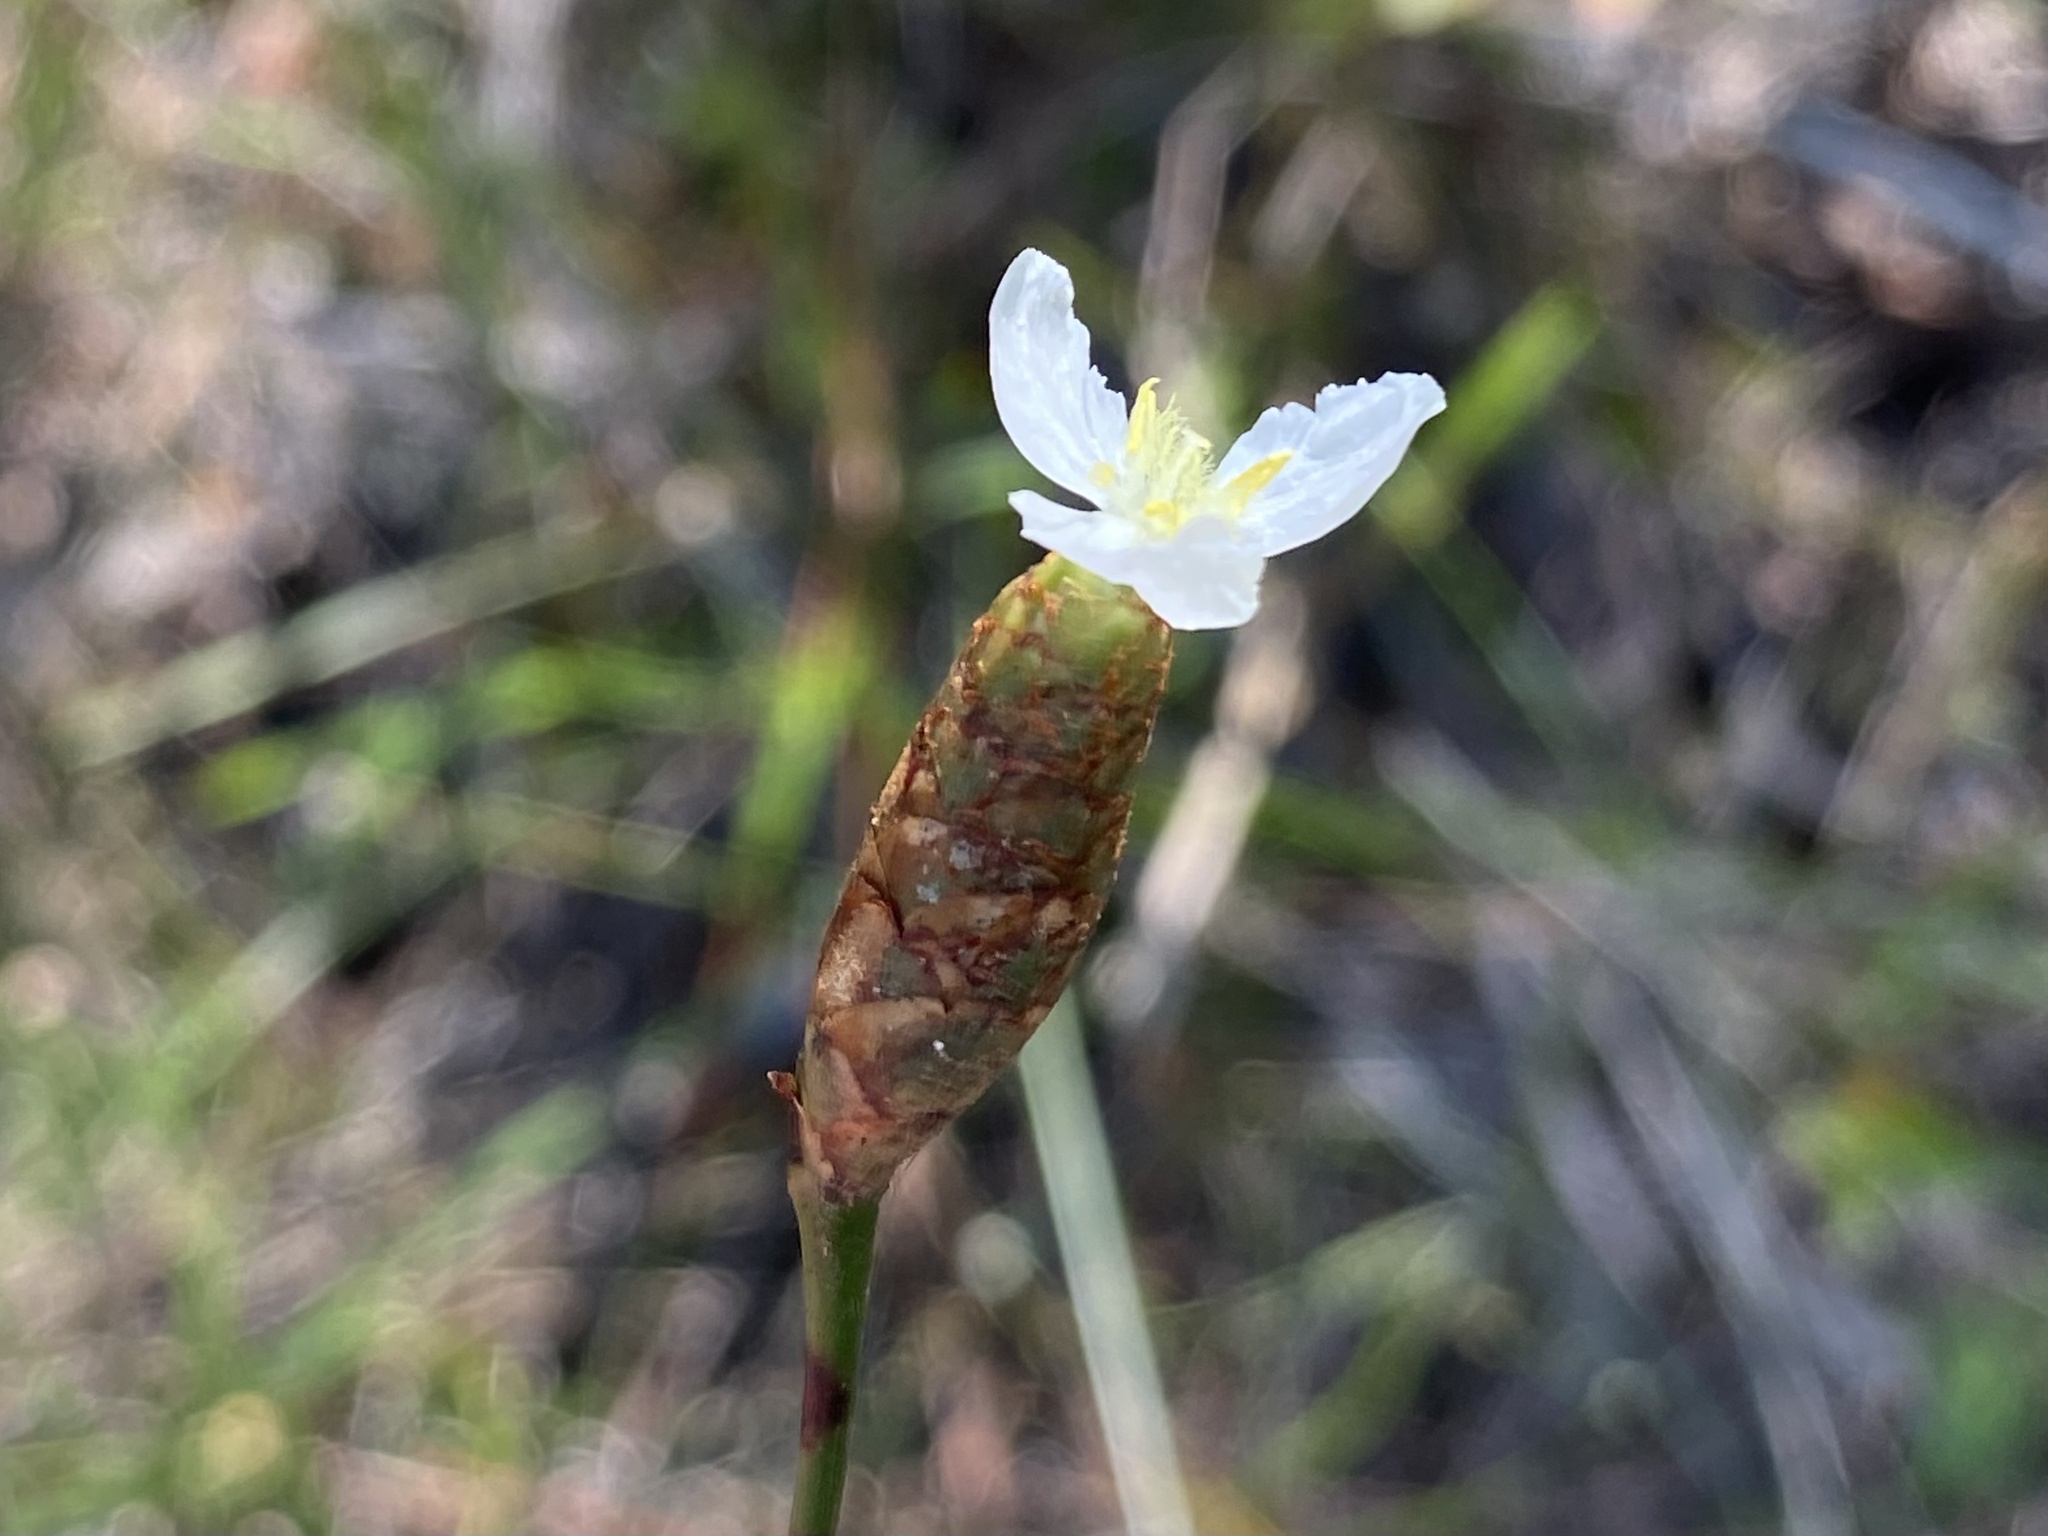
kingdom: Plantae
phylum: Tracheophyta
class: Liliopsida
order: Poales
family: Xyridaceae
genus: Xyris
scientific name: Xyris caroliniana
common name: Carolina yellow-eyed-grass
